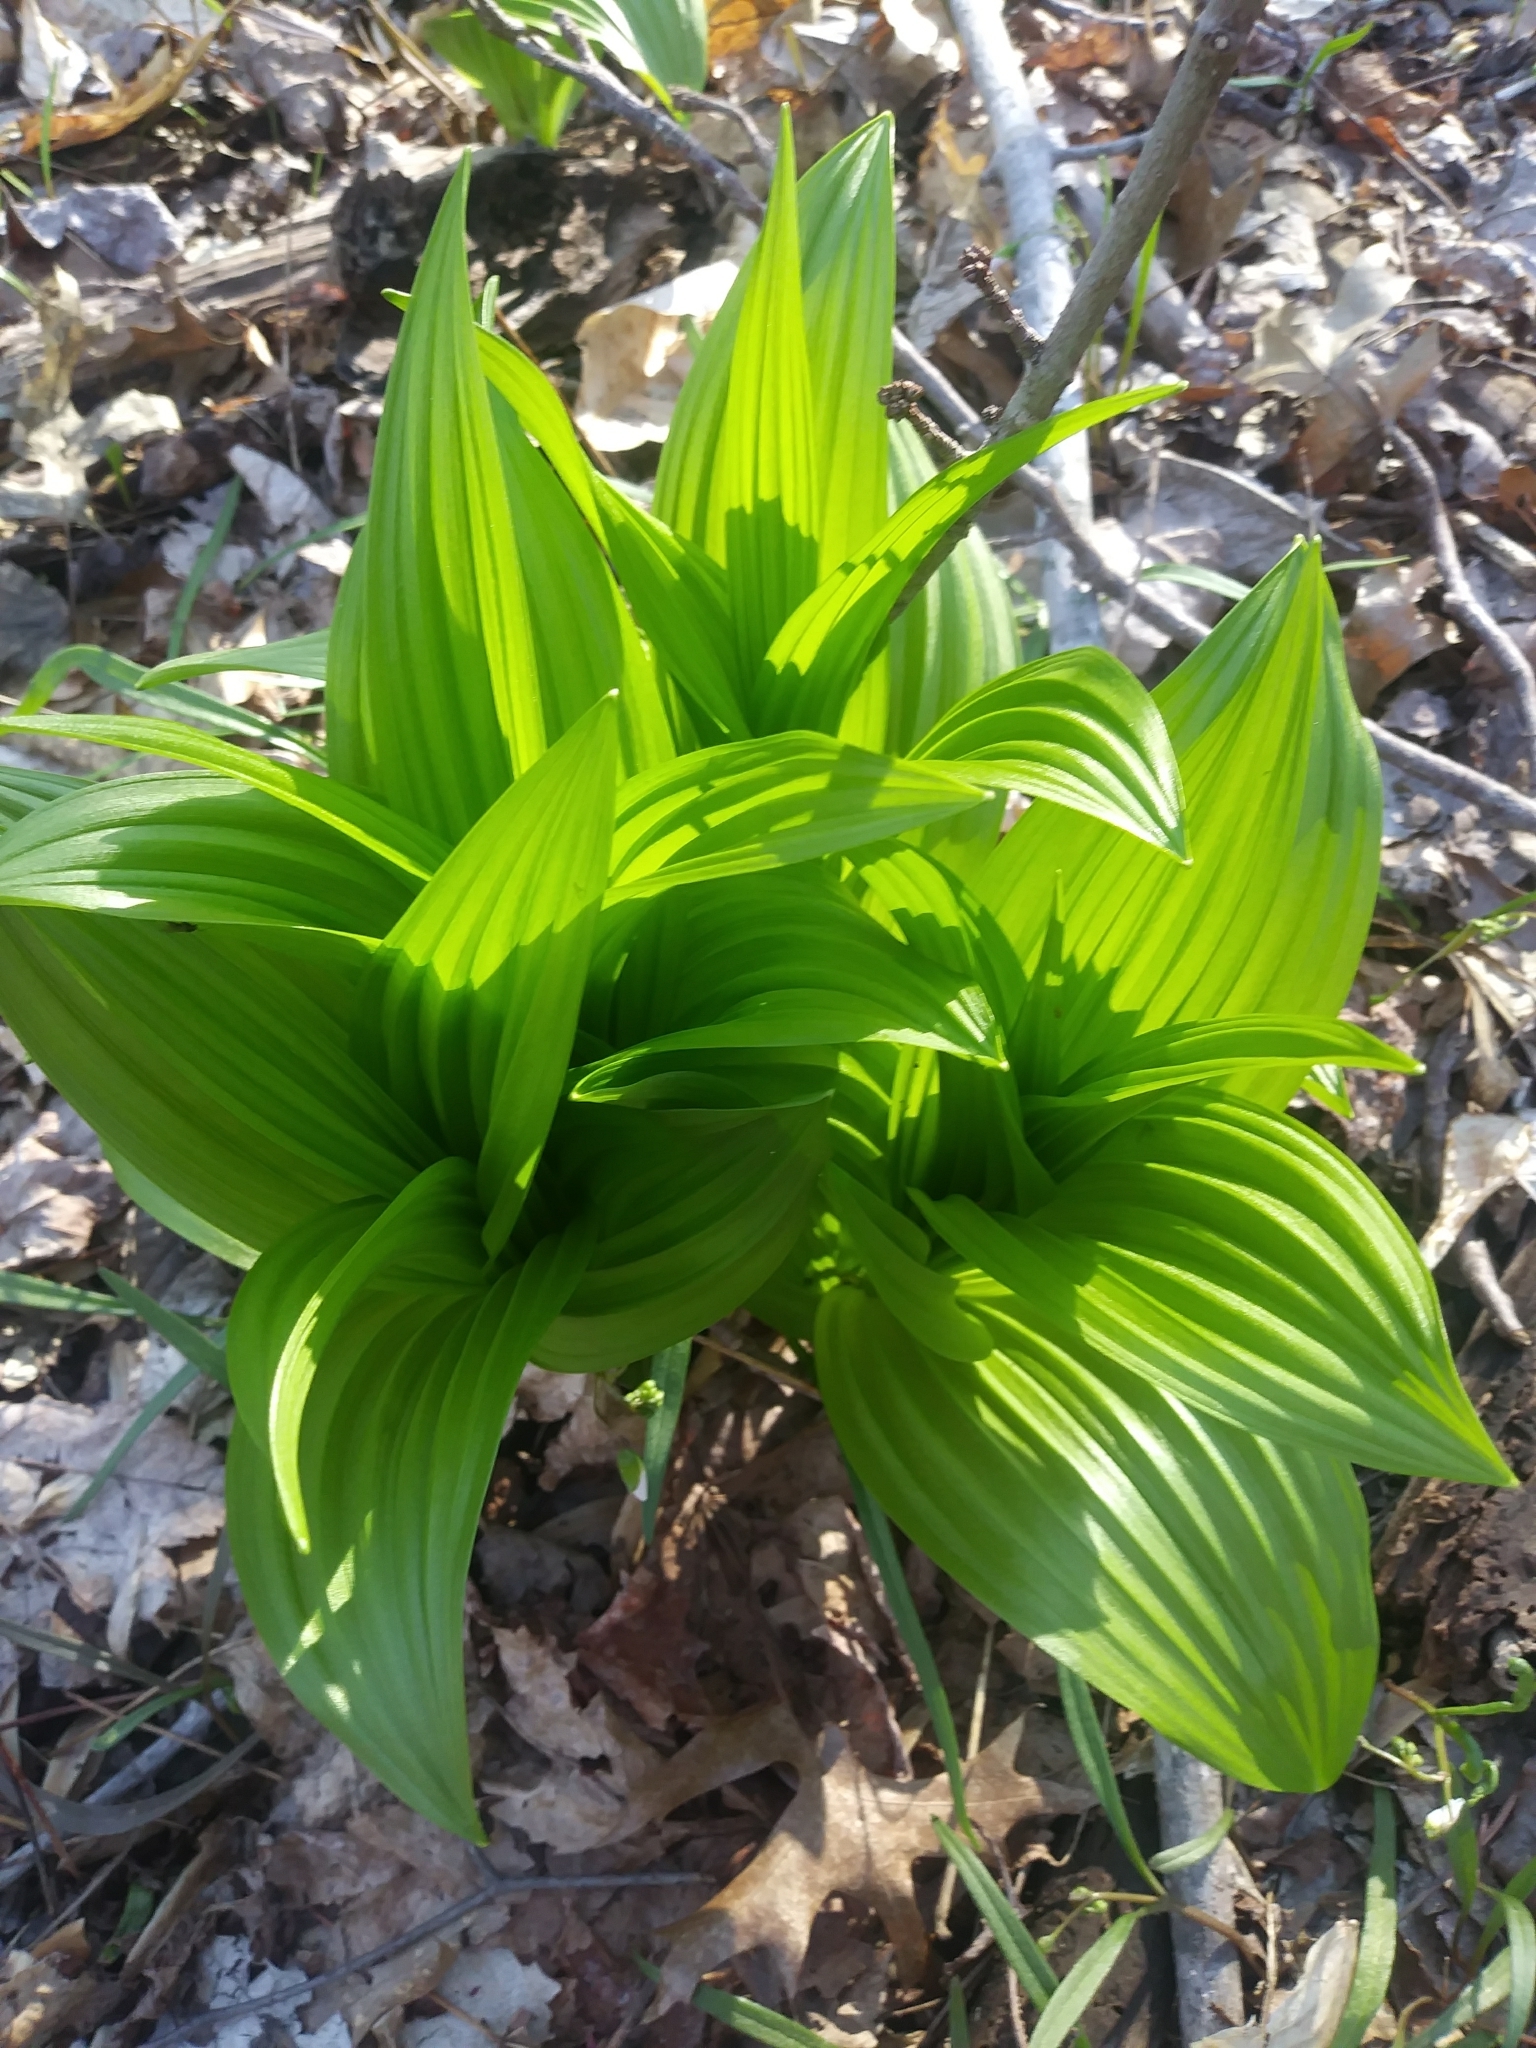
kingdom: Plantae
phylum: Tracheophyta
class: Liliopsida
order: Liliales
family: Melanthiaceae
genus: Veratrum
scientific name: Veratrum viride
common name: American false hellebore
